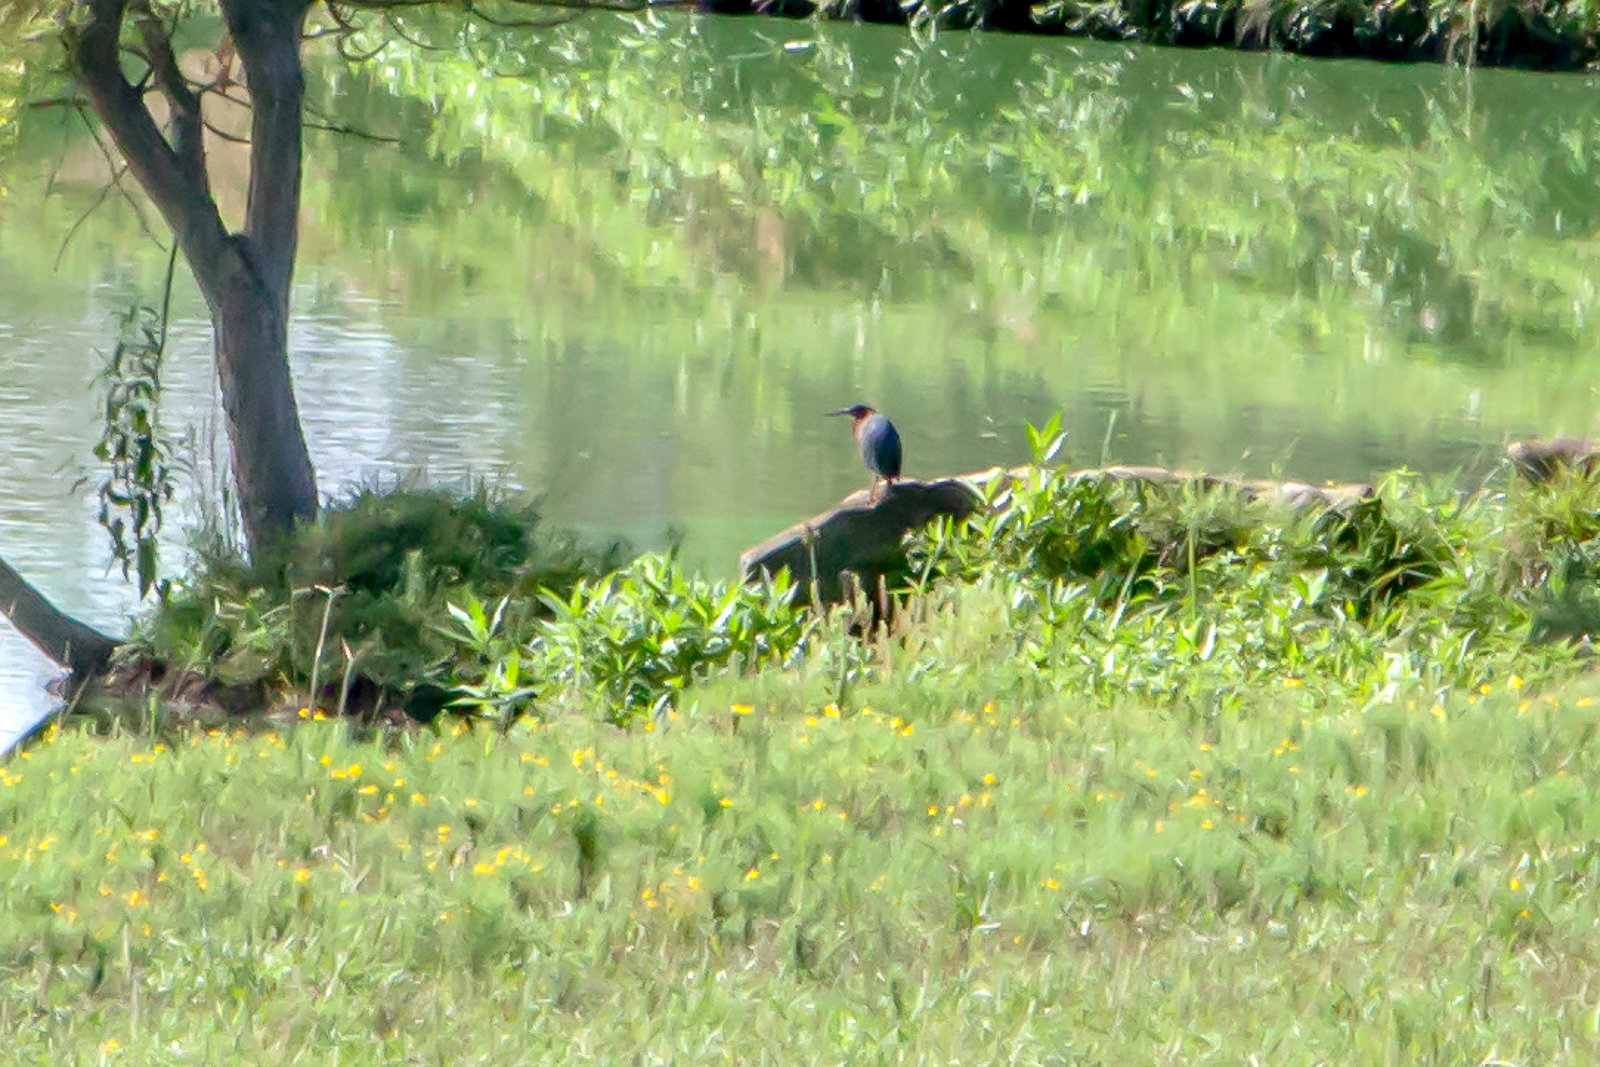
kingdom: Animalia
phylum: Chordata
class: Aves
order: Pelecaniformes
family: Ardeidae
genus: Butorides
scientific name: Butorides virescens
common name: Green heron
